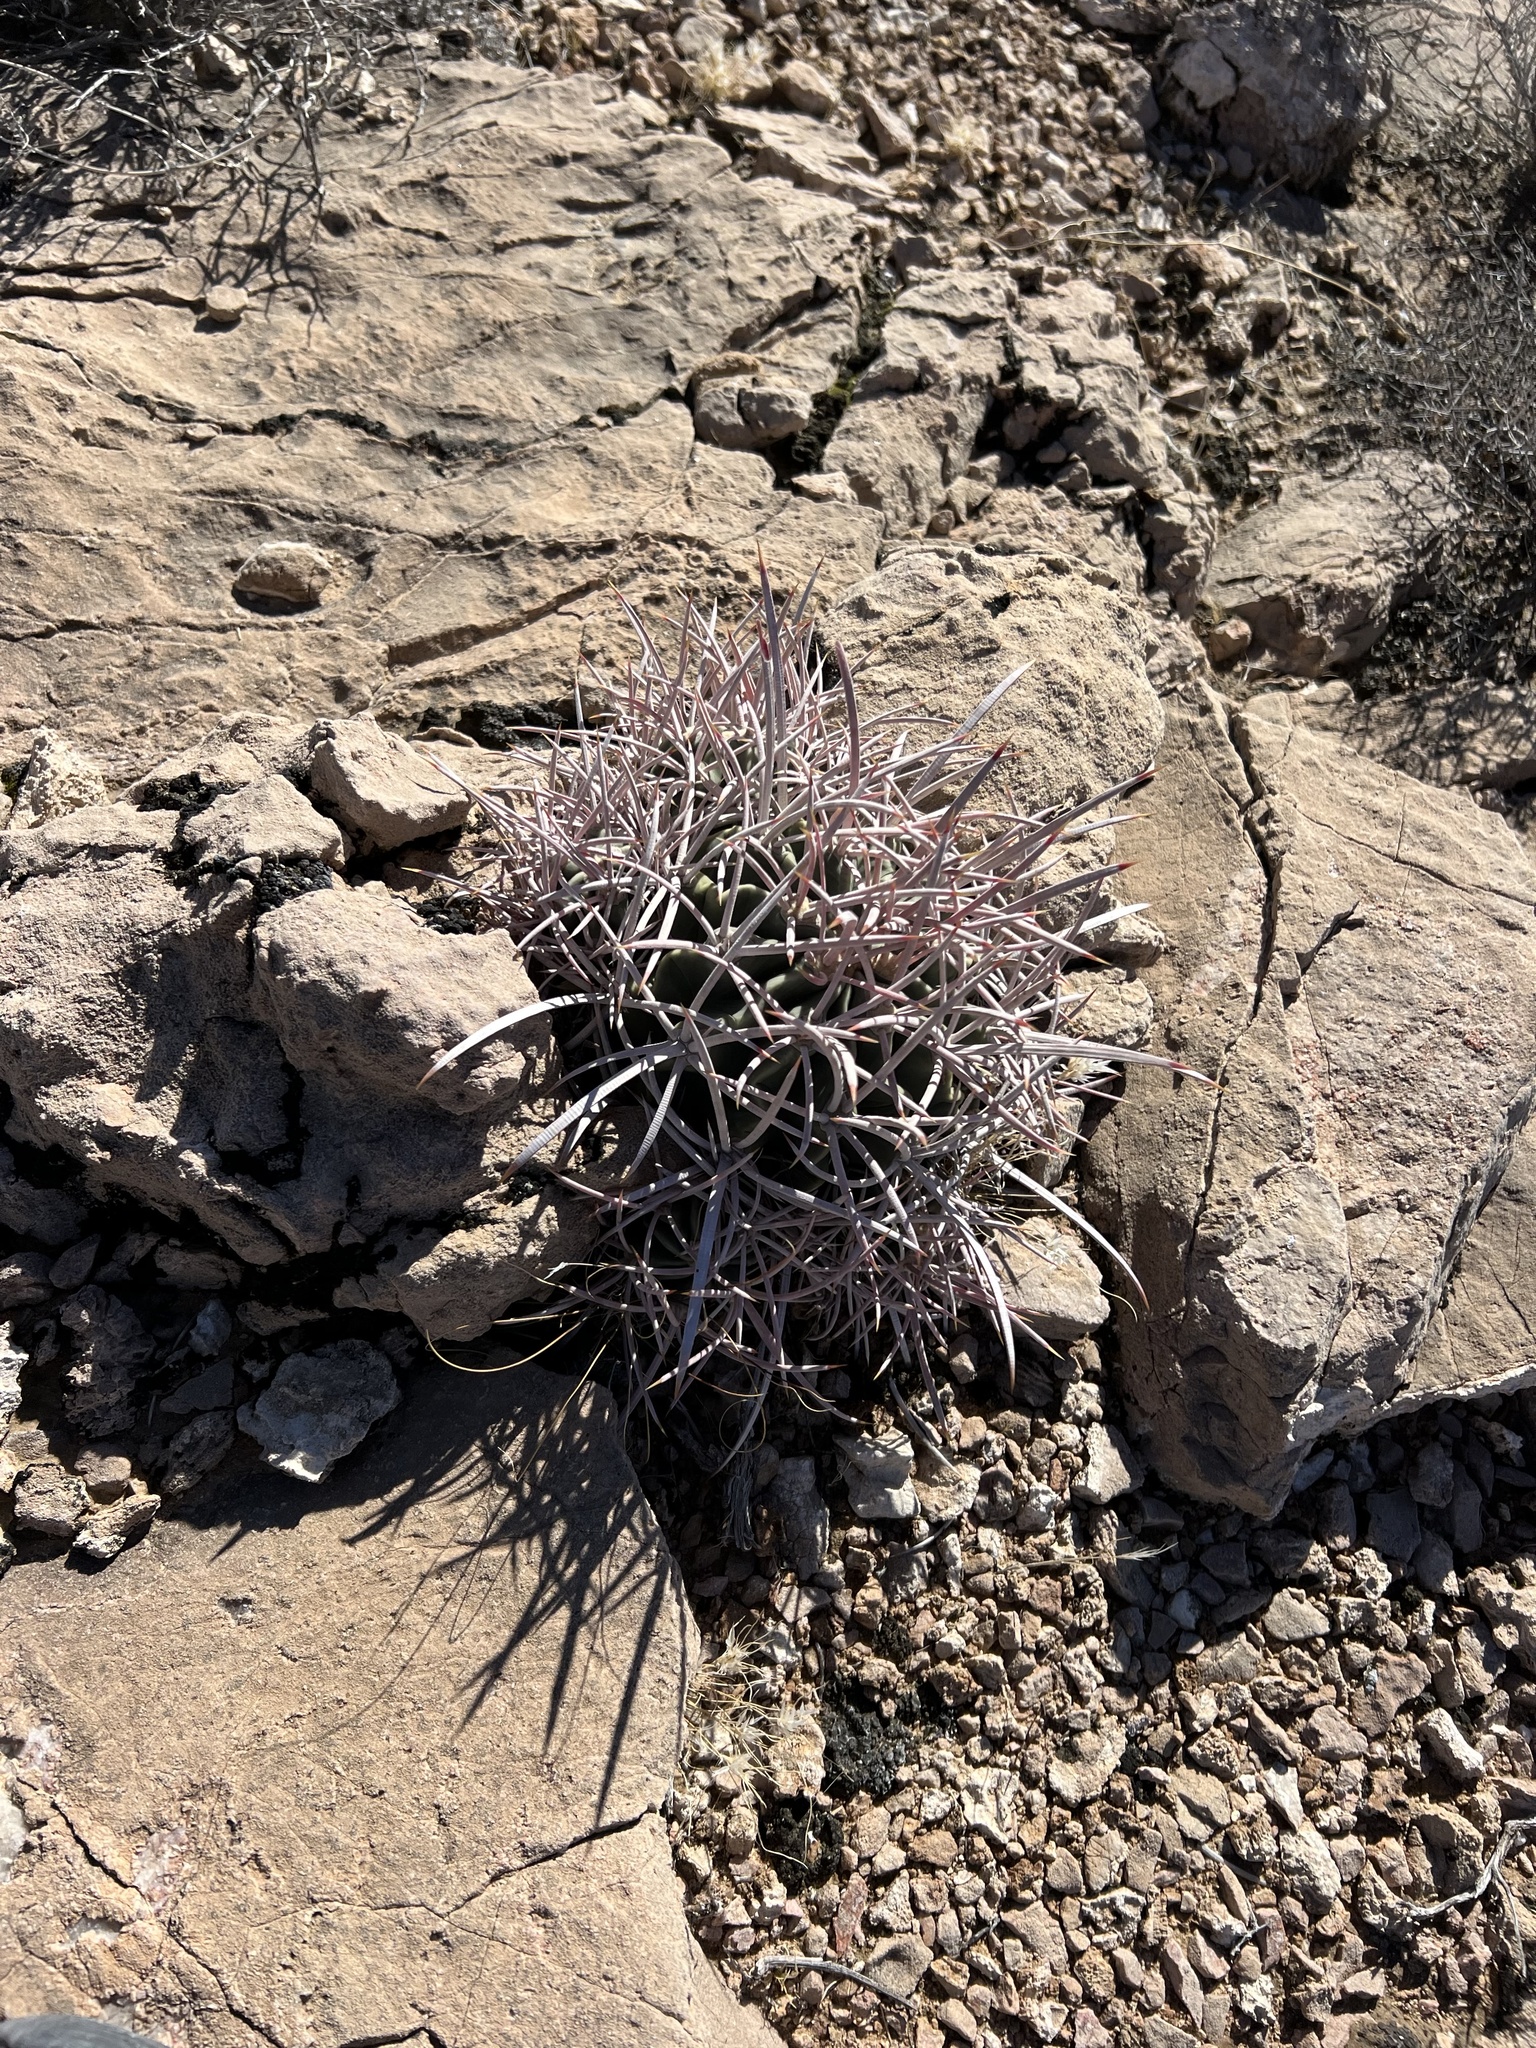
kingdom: Plantae
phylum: Tracheophyta
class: Magnoliopsida
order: Caryophyllales
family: Cactaceae
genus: Echinocactus
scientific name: Echinocactus polycephalus
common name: Cottontop cactus
